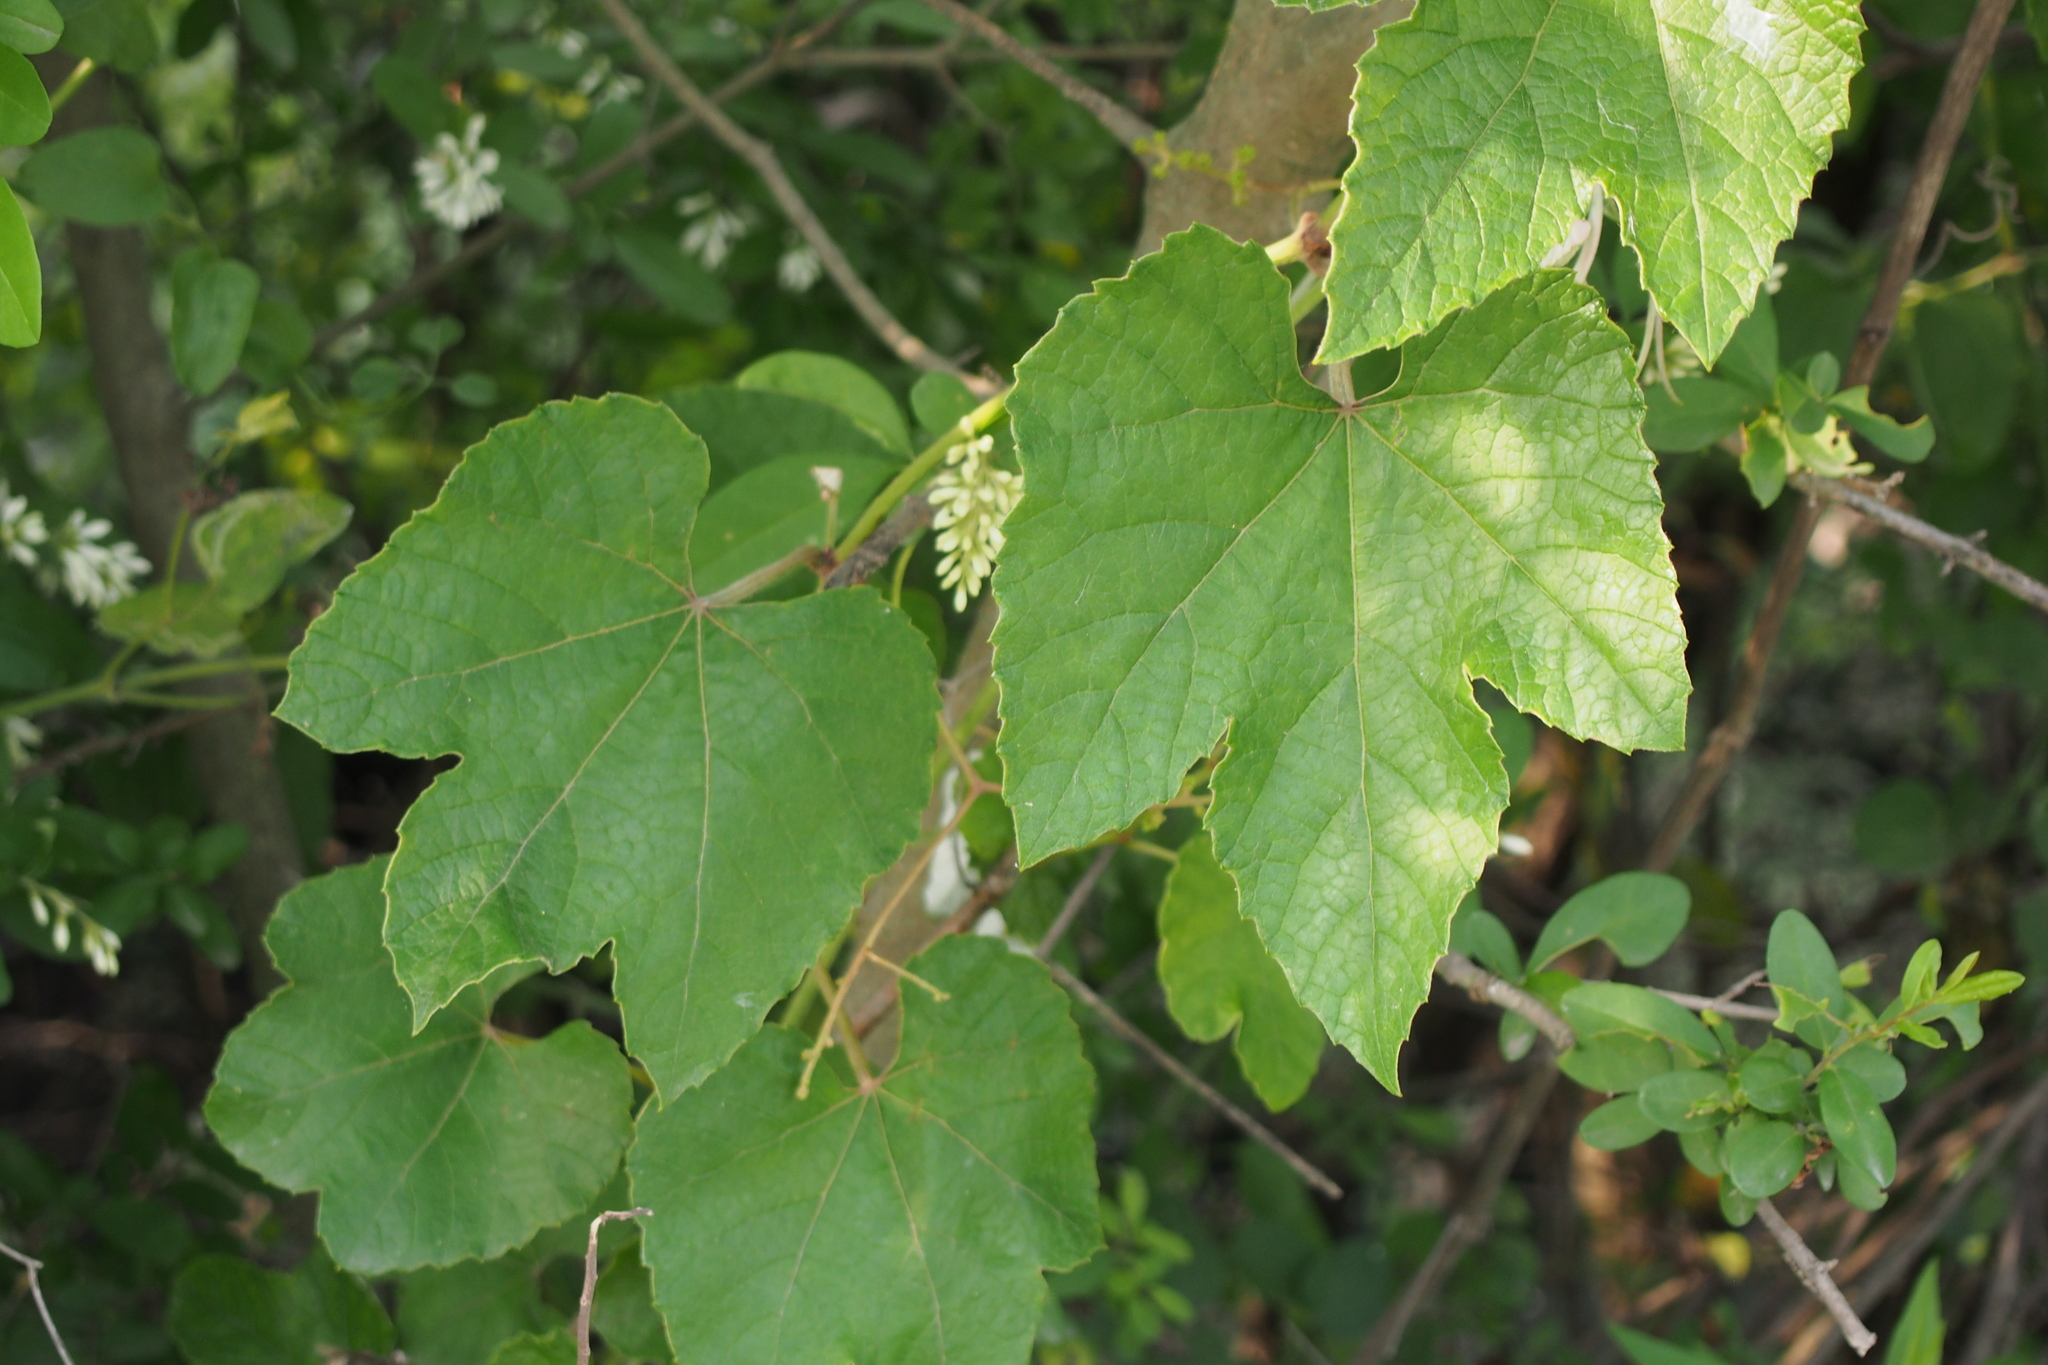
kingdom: Plantae
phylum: Tracheophyta
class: Magnoliopsida
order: Vitales
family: Vitaceae
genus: Vitis
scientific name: Vitis ficifolia
